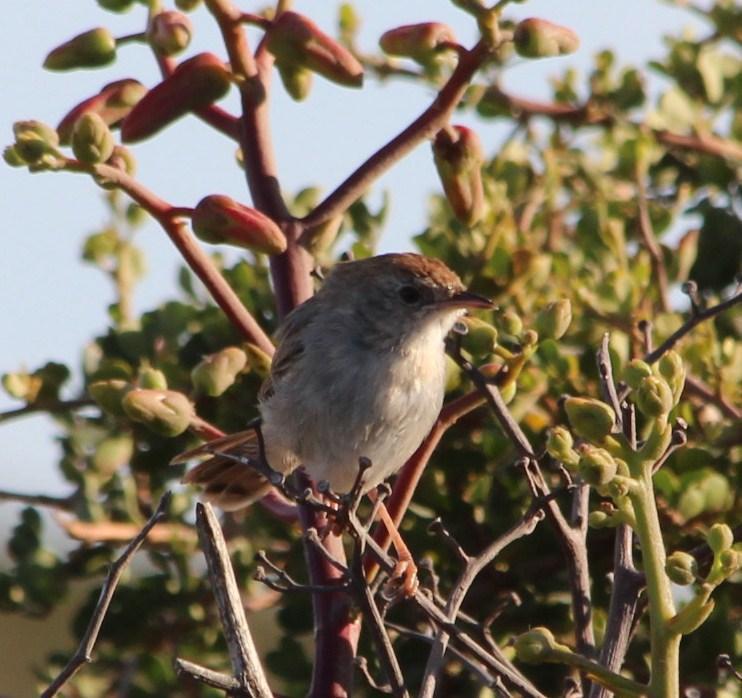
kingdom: Animalia
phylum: Chordata
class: Aves
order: Passeriformes
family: Cisticolidae
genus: Cisticola
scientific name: Cisticola subruficapilla
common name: Grey-backed cisticola
